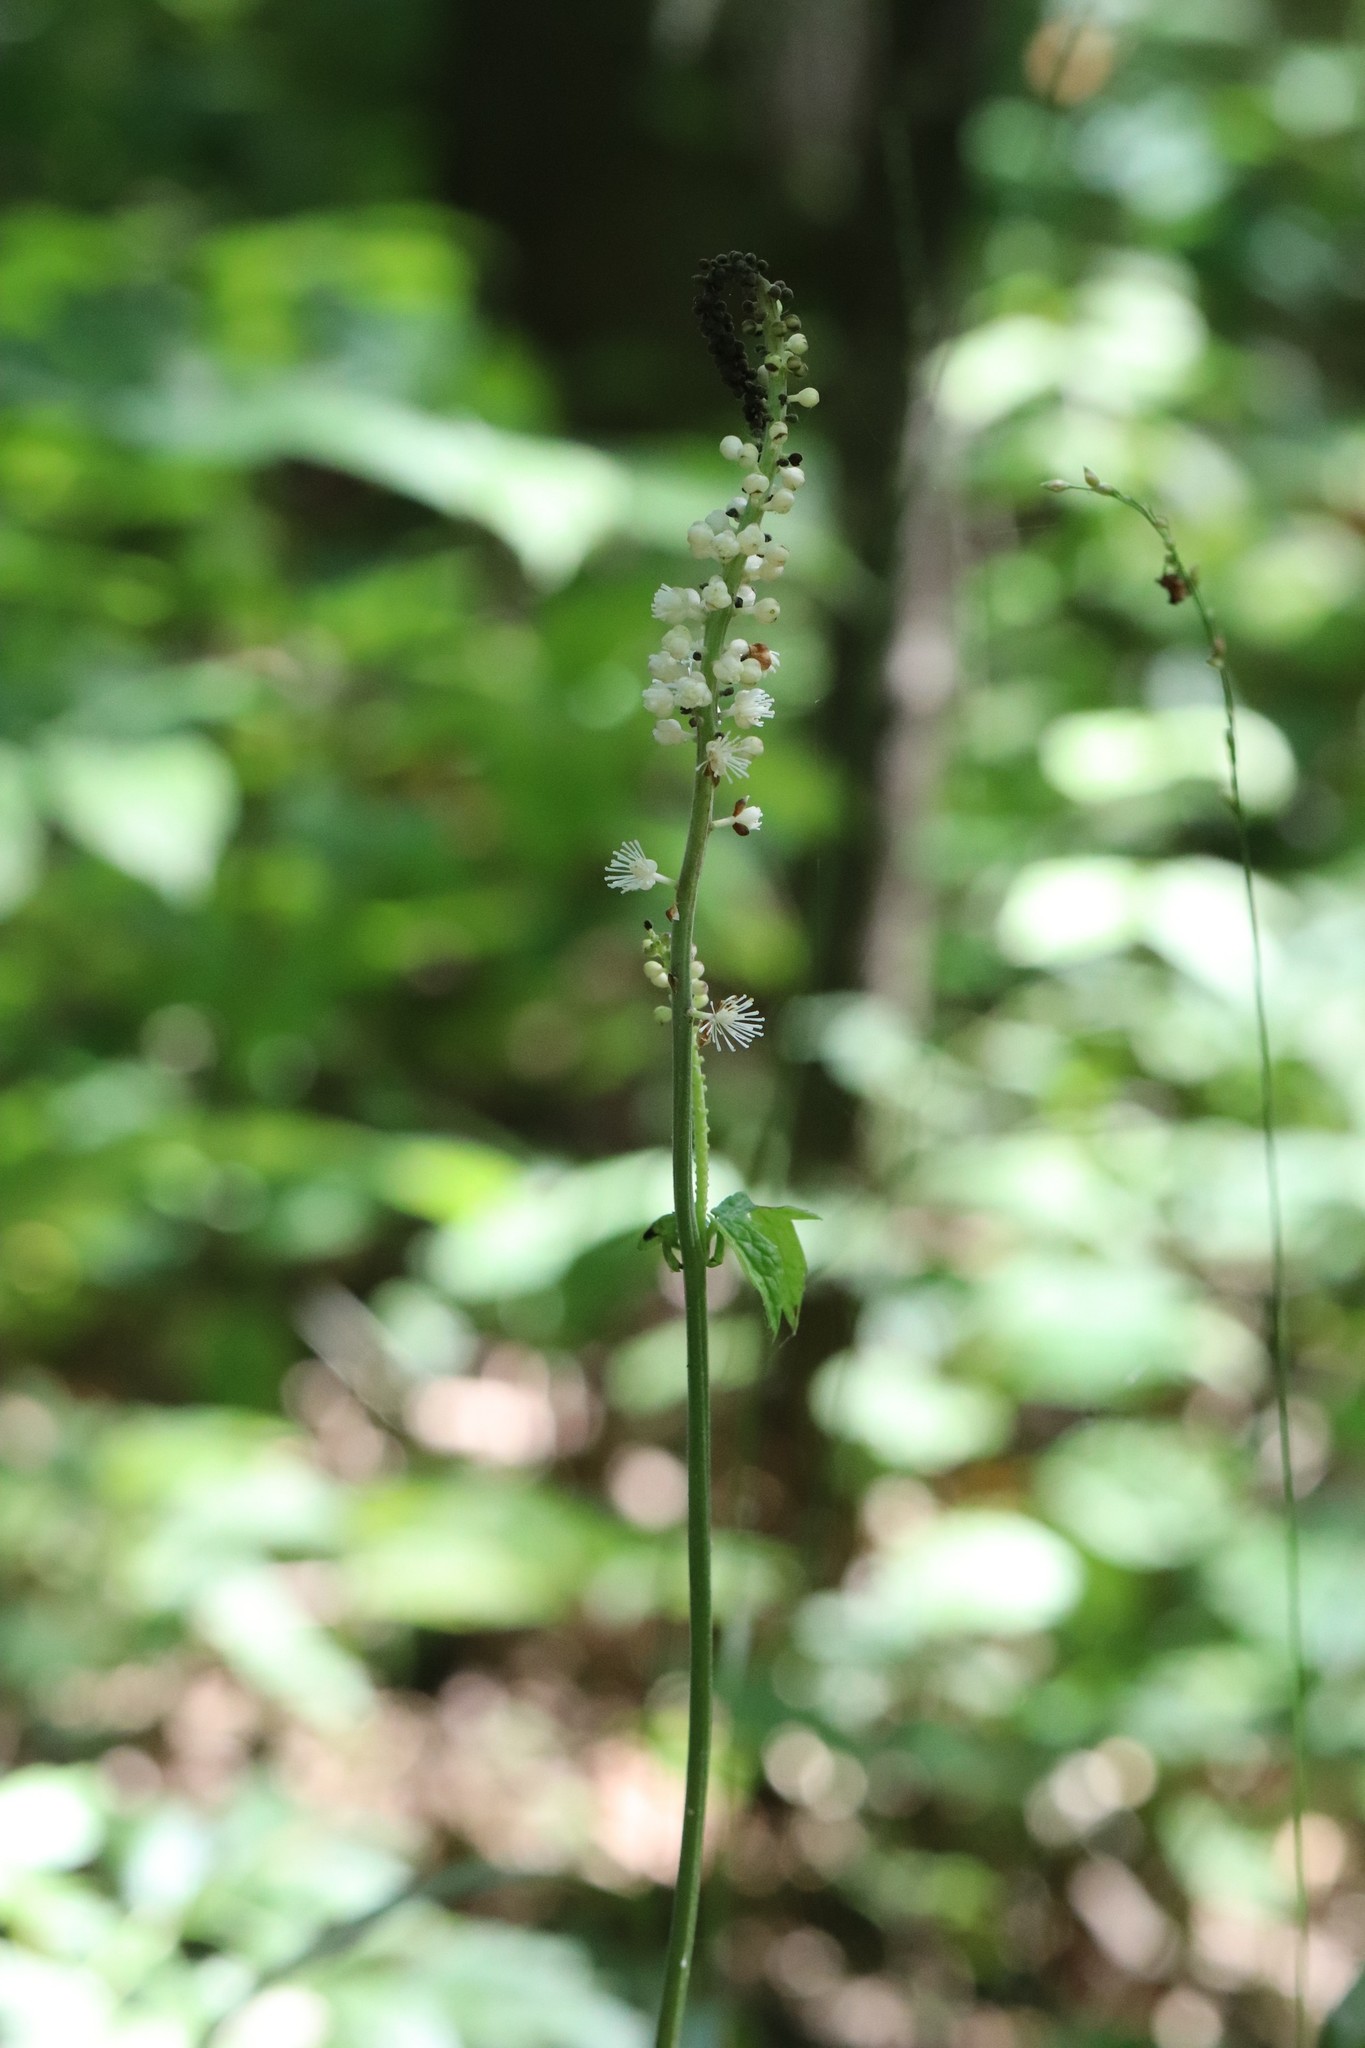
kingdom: Plantae
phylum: Tracheophyta
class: Magnoliopsida
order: Ranunculales
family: Ranunculaceae
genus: Actaea
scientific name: Actaea simplex
